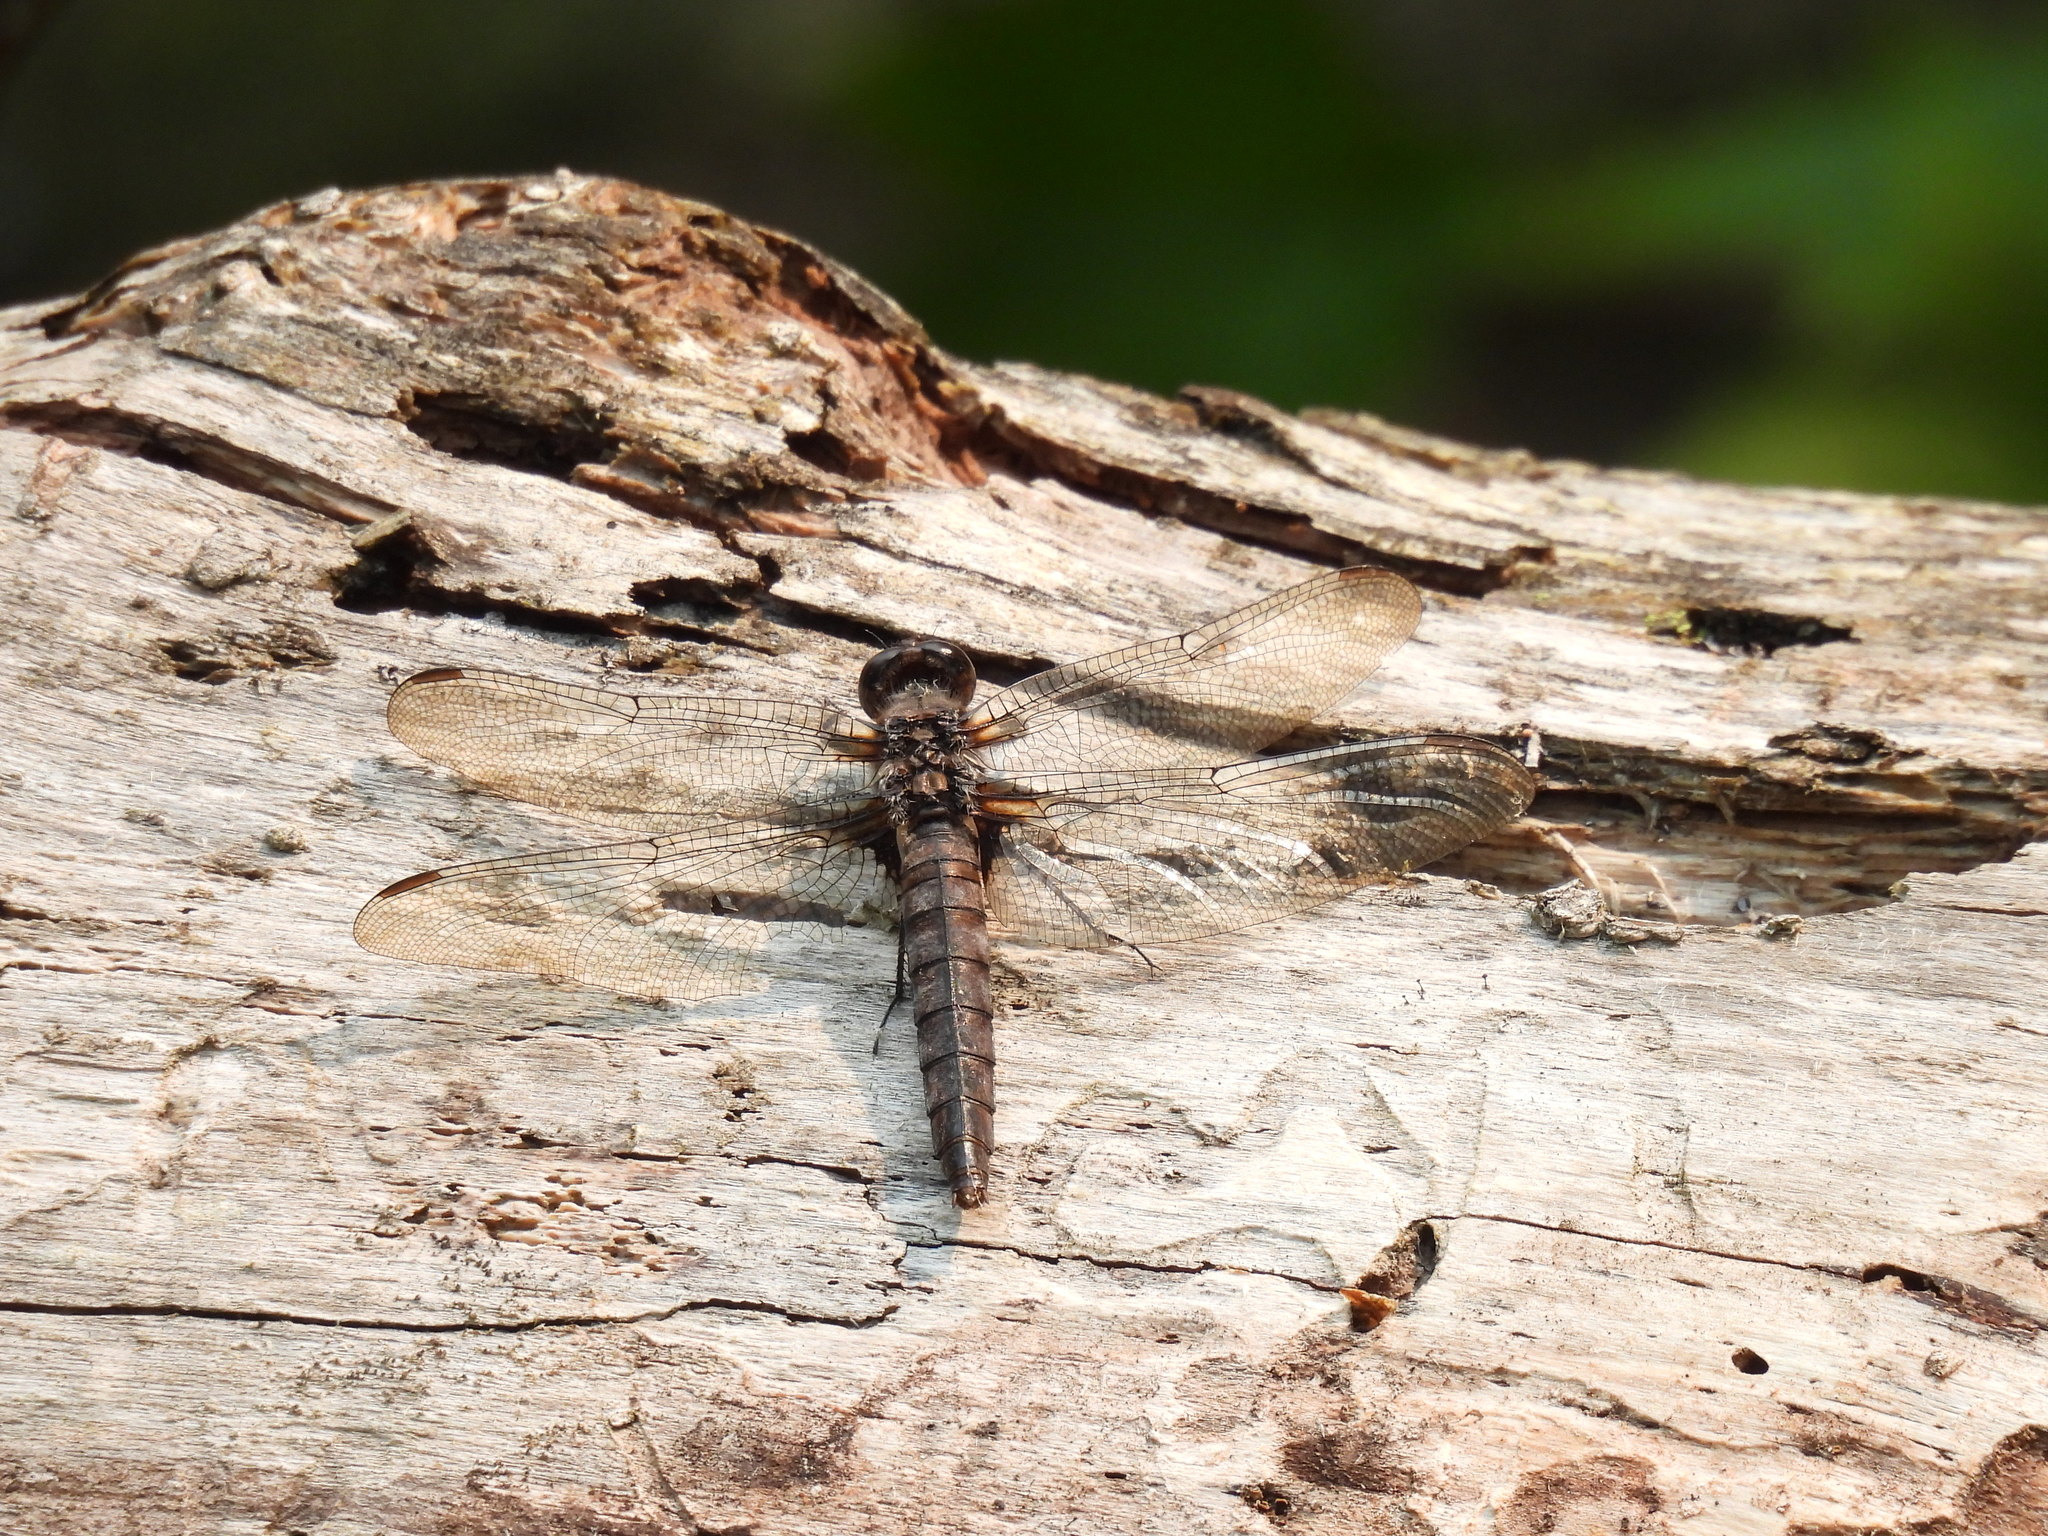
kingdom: Animalia
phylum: Arthropoda
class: Insecta
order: Odonata
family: Libellulidae
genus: Ladona
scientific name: Ladona julia
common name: Chalk-fronted corporal
